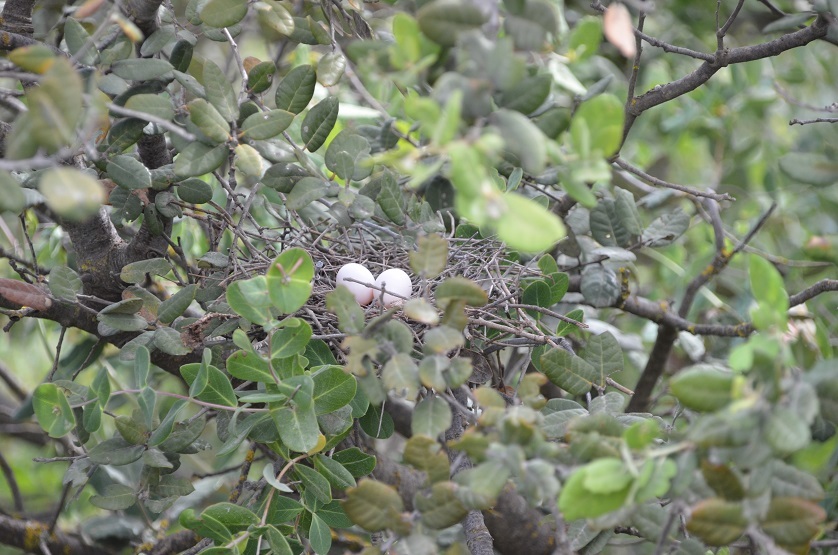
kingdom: Animalia
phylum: Chordata
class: Aves
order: Columbiformes
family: Columbidae
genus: Streptopelia
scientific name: Streptopelia turtur
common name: European turtle dove
